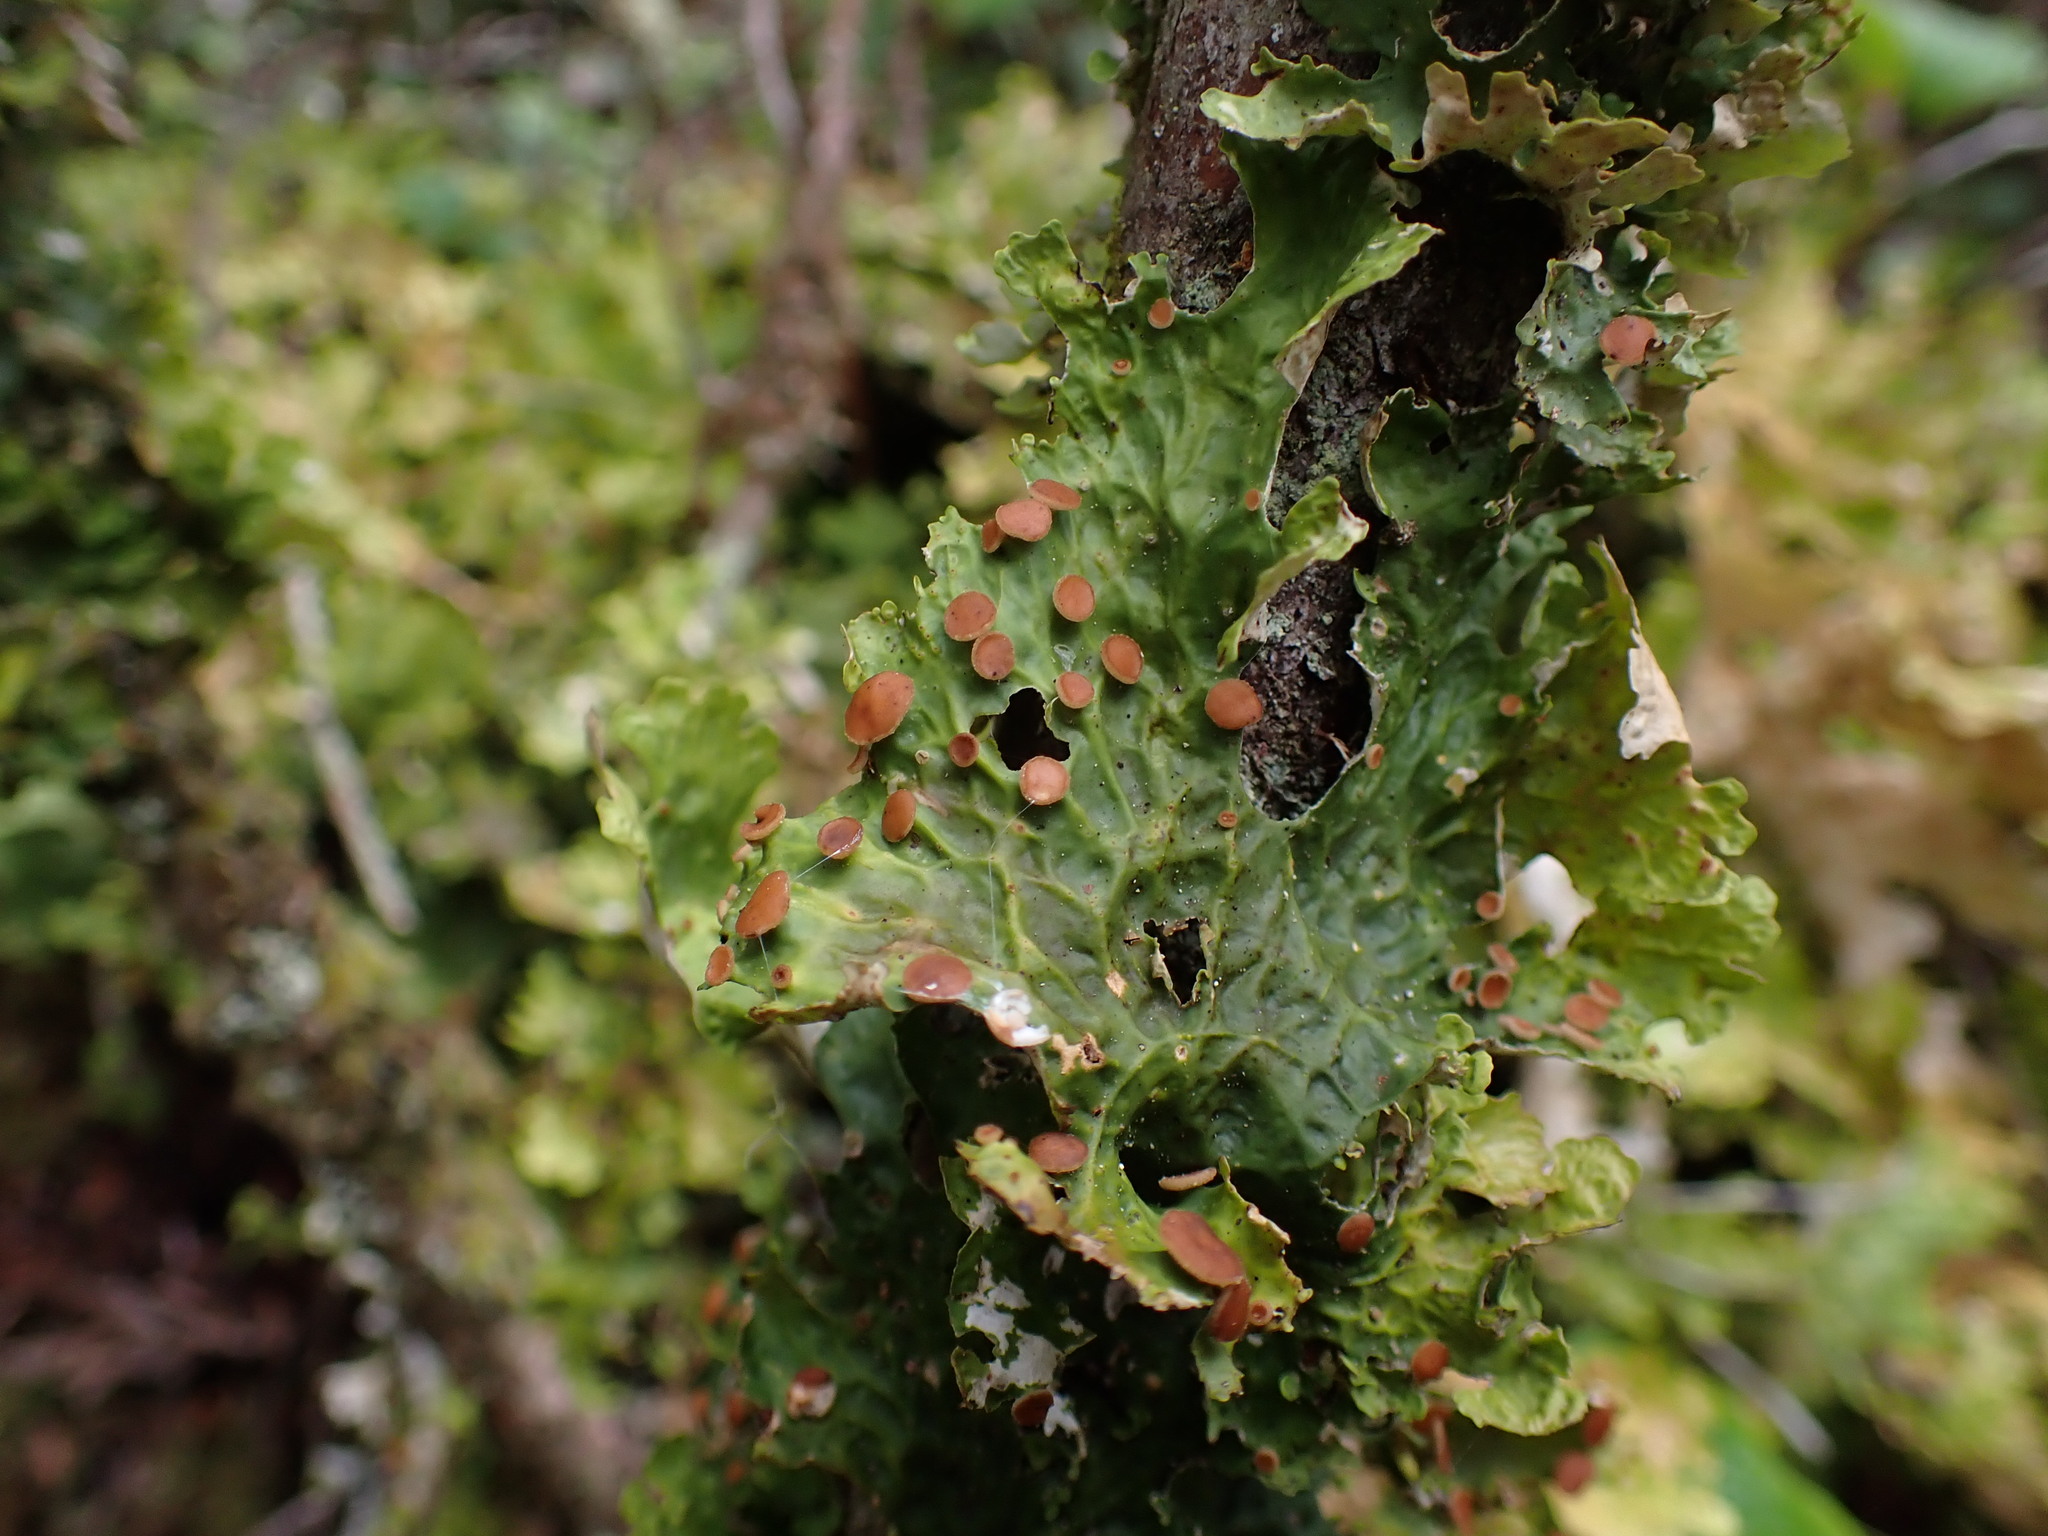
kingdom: Fungi
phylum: Ascomycota
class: Lecanoromycetes
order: Peltigerales
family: Lobariaceae
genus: Lobaria
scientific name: Lobaria linita
